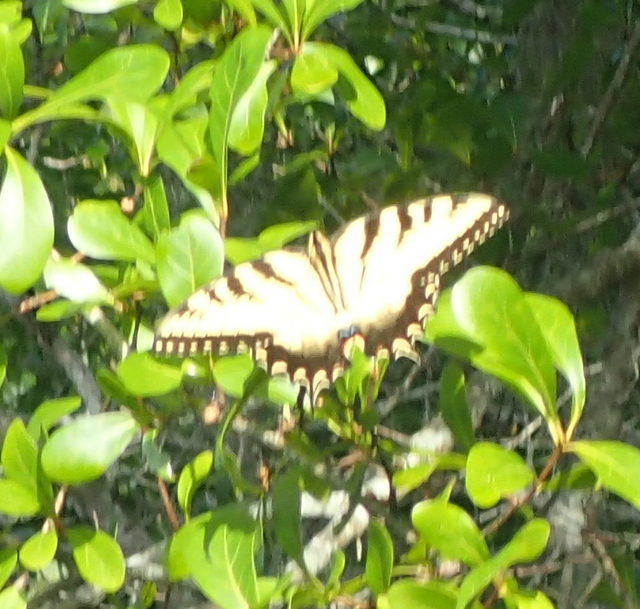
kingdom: Animalia
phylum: Arthropoda
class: Insecta
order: Lepidoptera
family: Papilionidae
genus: Papilio
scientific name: Papilio glaucus
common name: Tiger swallowtail
